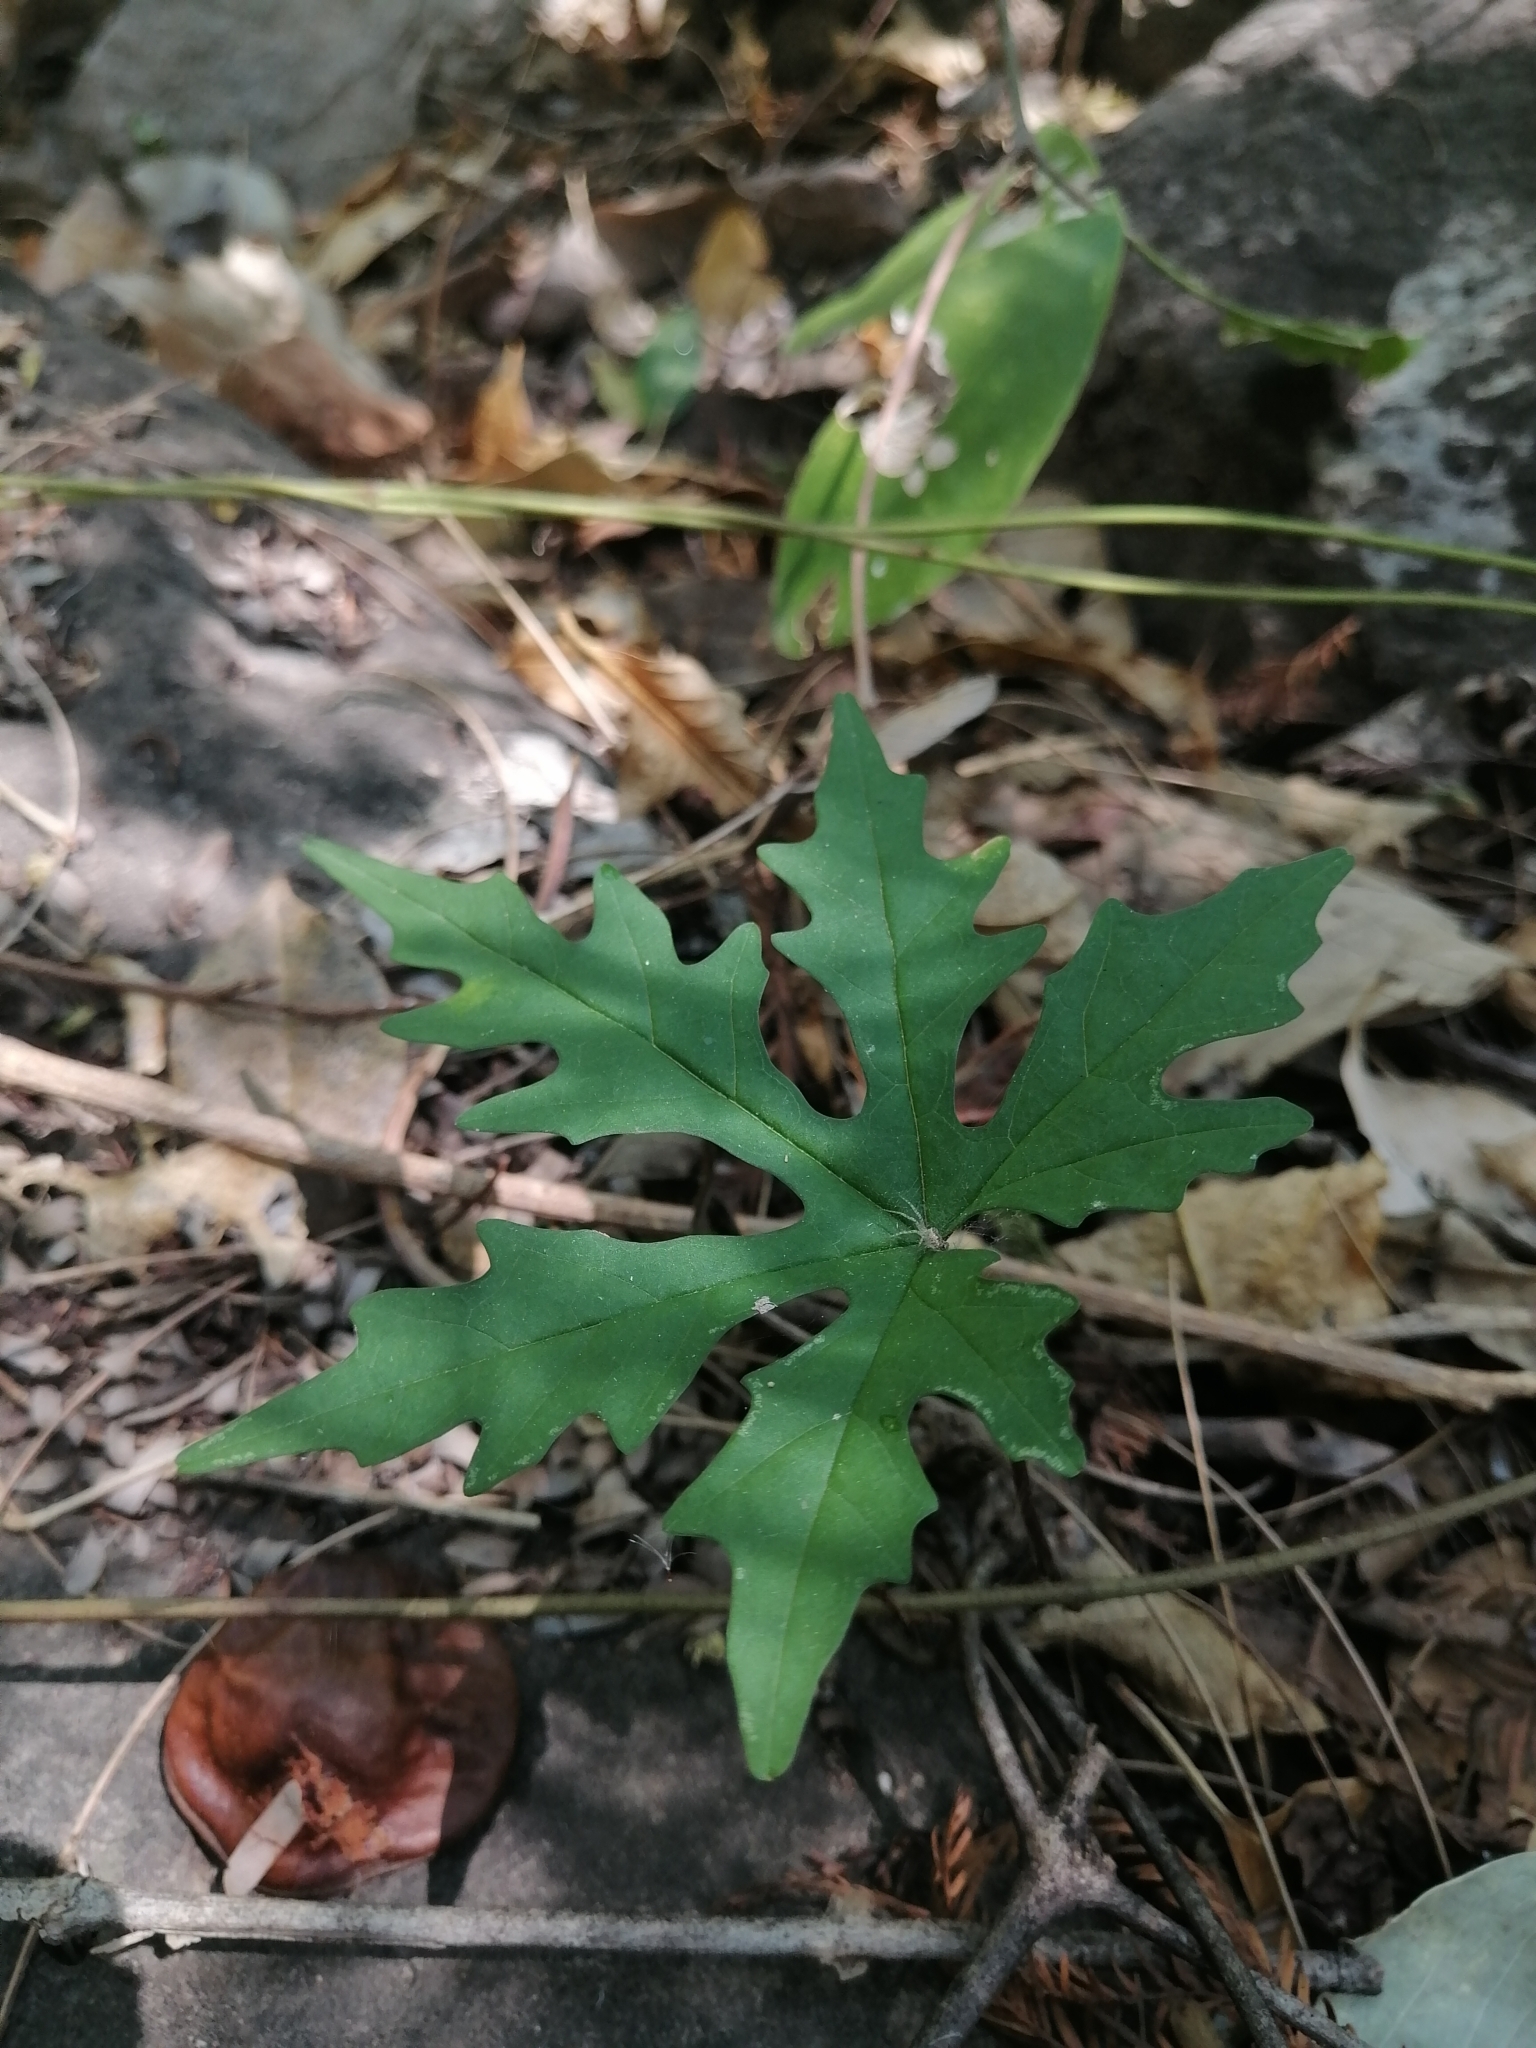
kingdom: Plantae
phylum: Tracheophyta
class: Magnoliopsida
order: Solanales
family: Convolvulaceae
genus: Distimake
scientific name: Distimake dissectus
